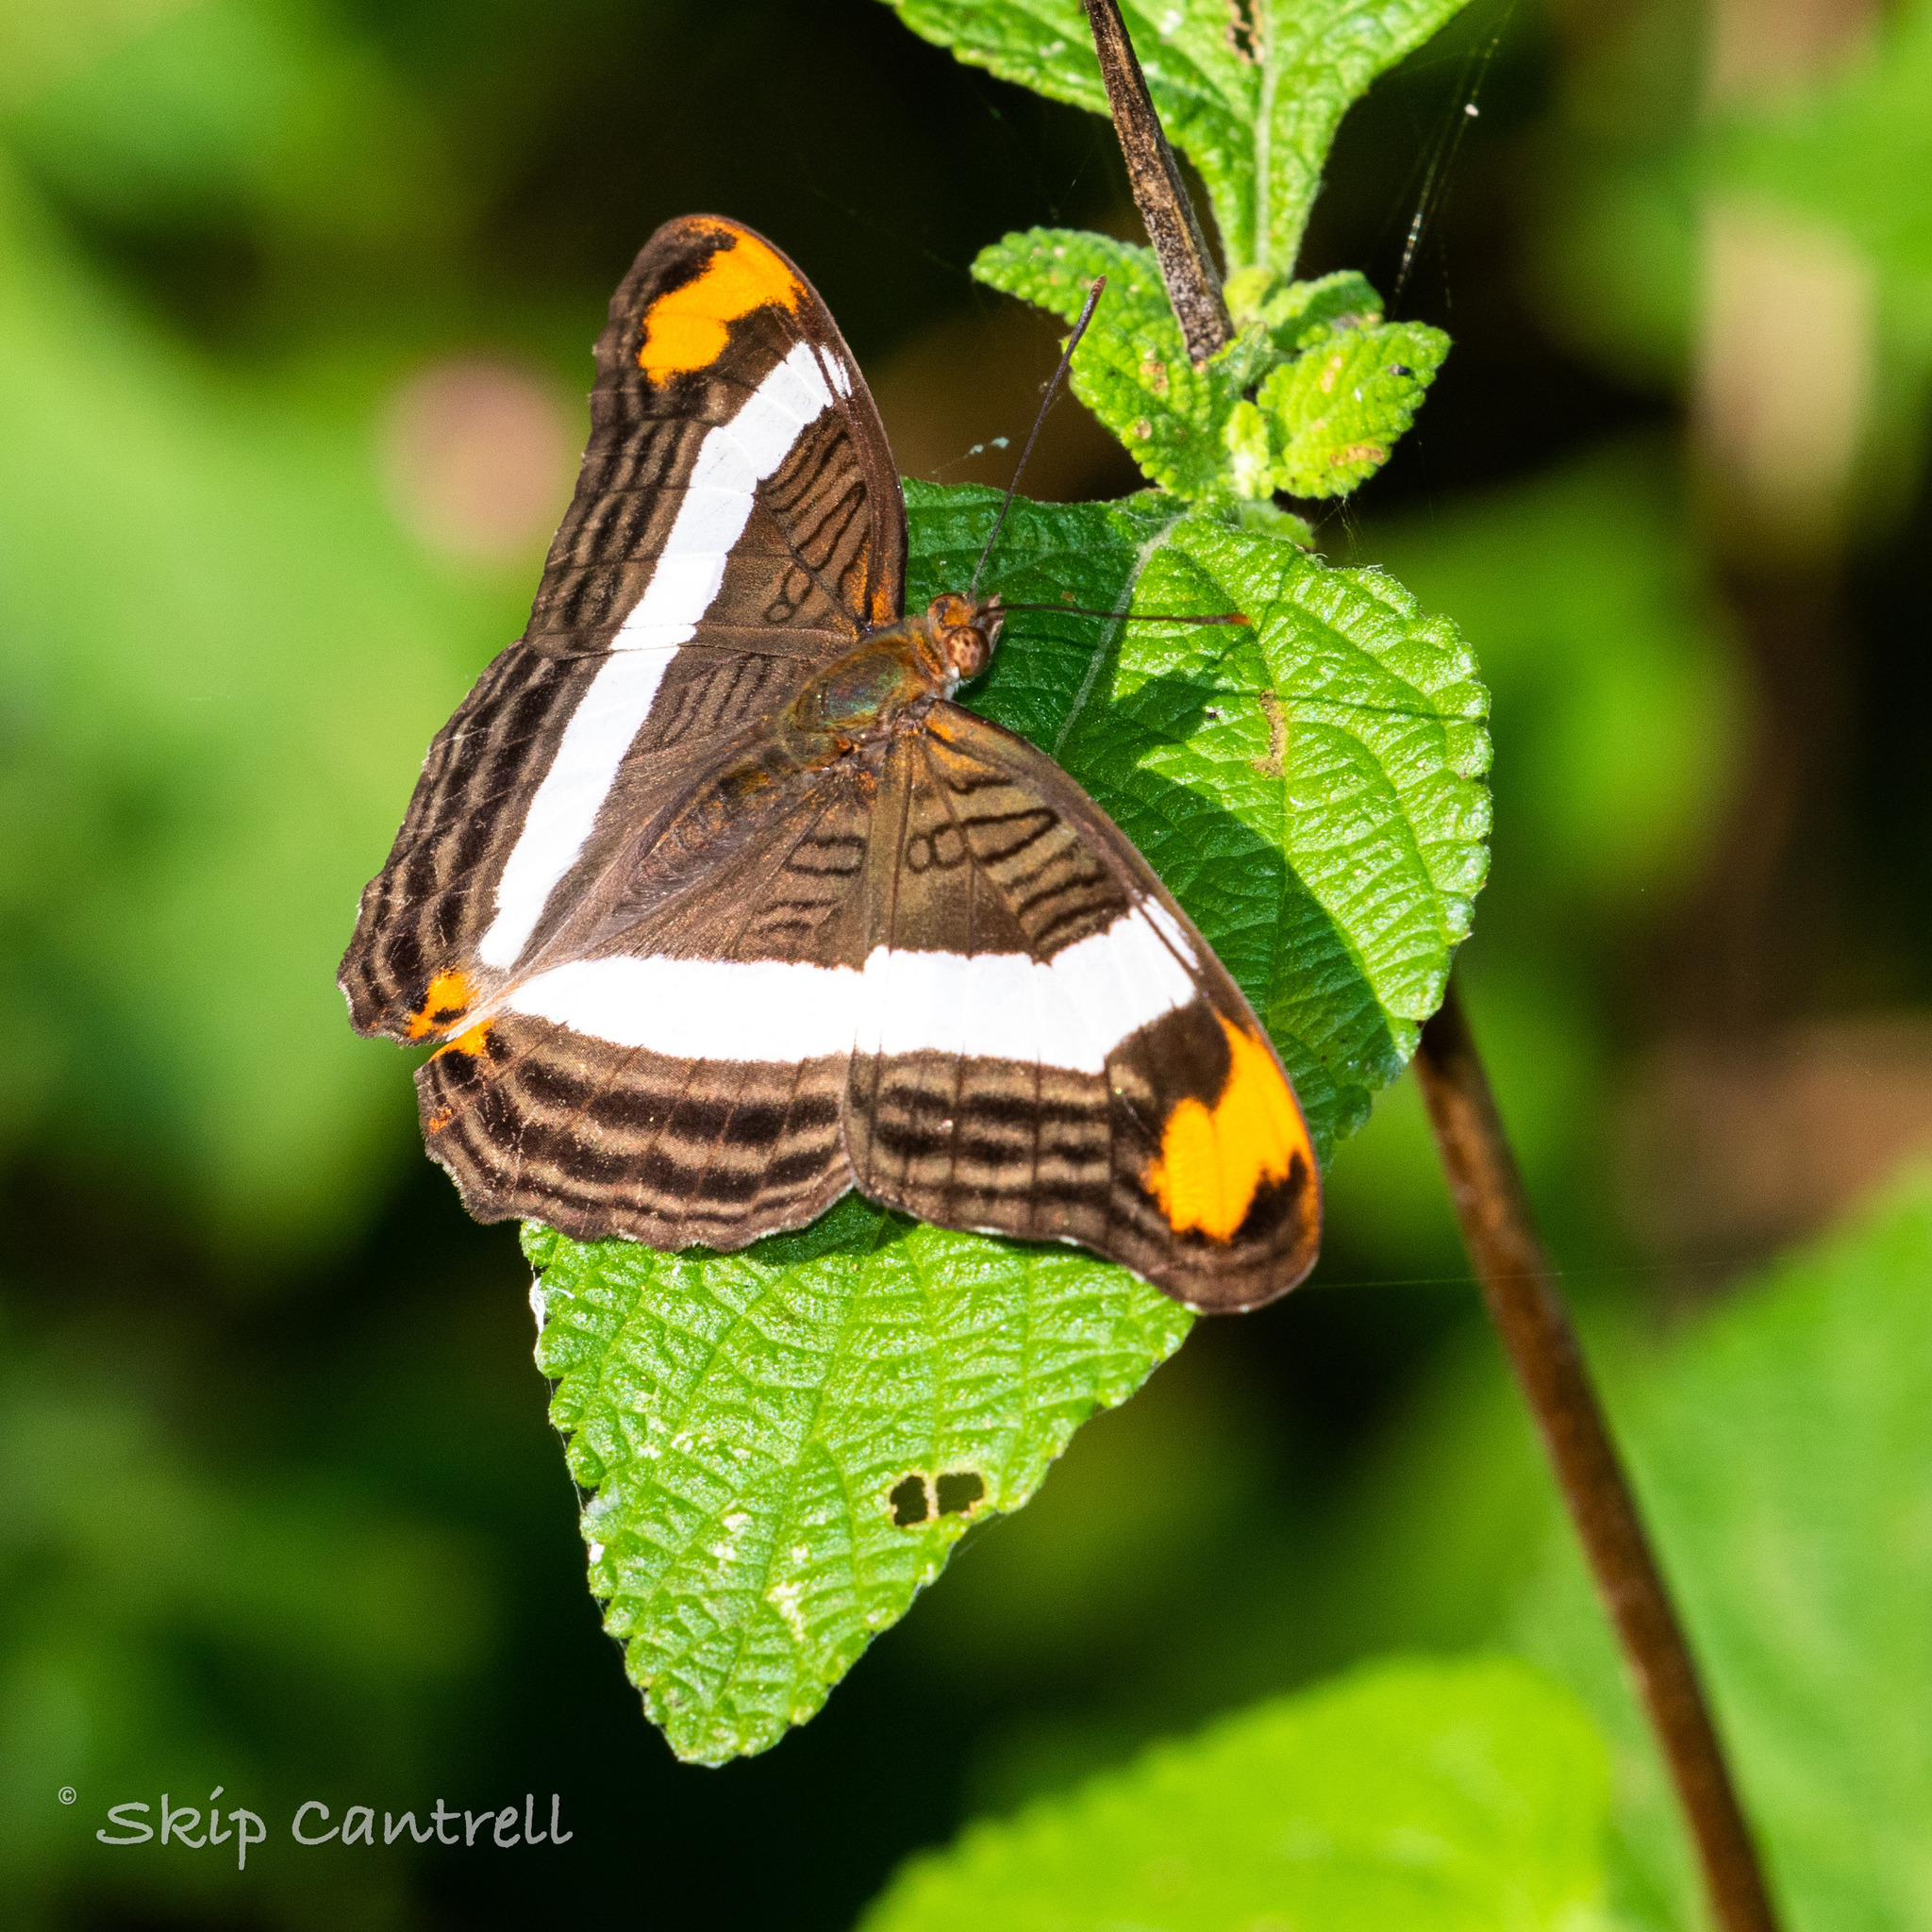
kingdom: Animalia
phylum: Arthropoda
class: Insecta
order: Lepidoptera
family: Nymphalidae
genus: Limenitis
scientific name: Limenitis fessonia
